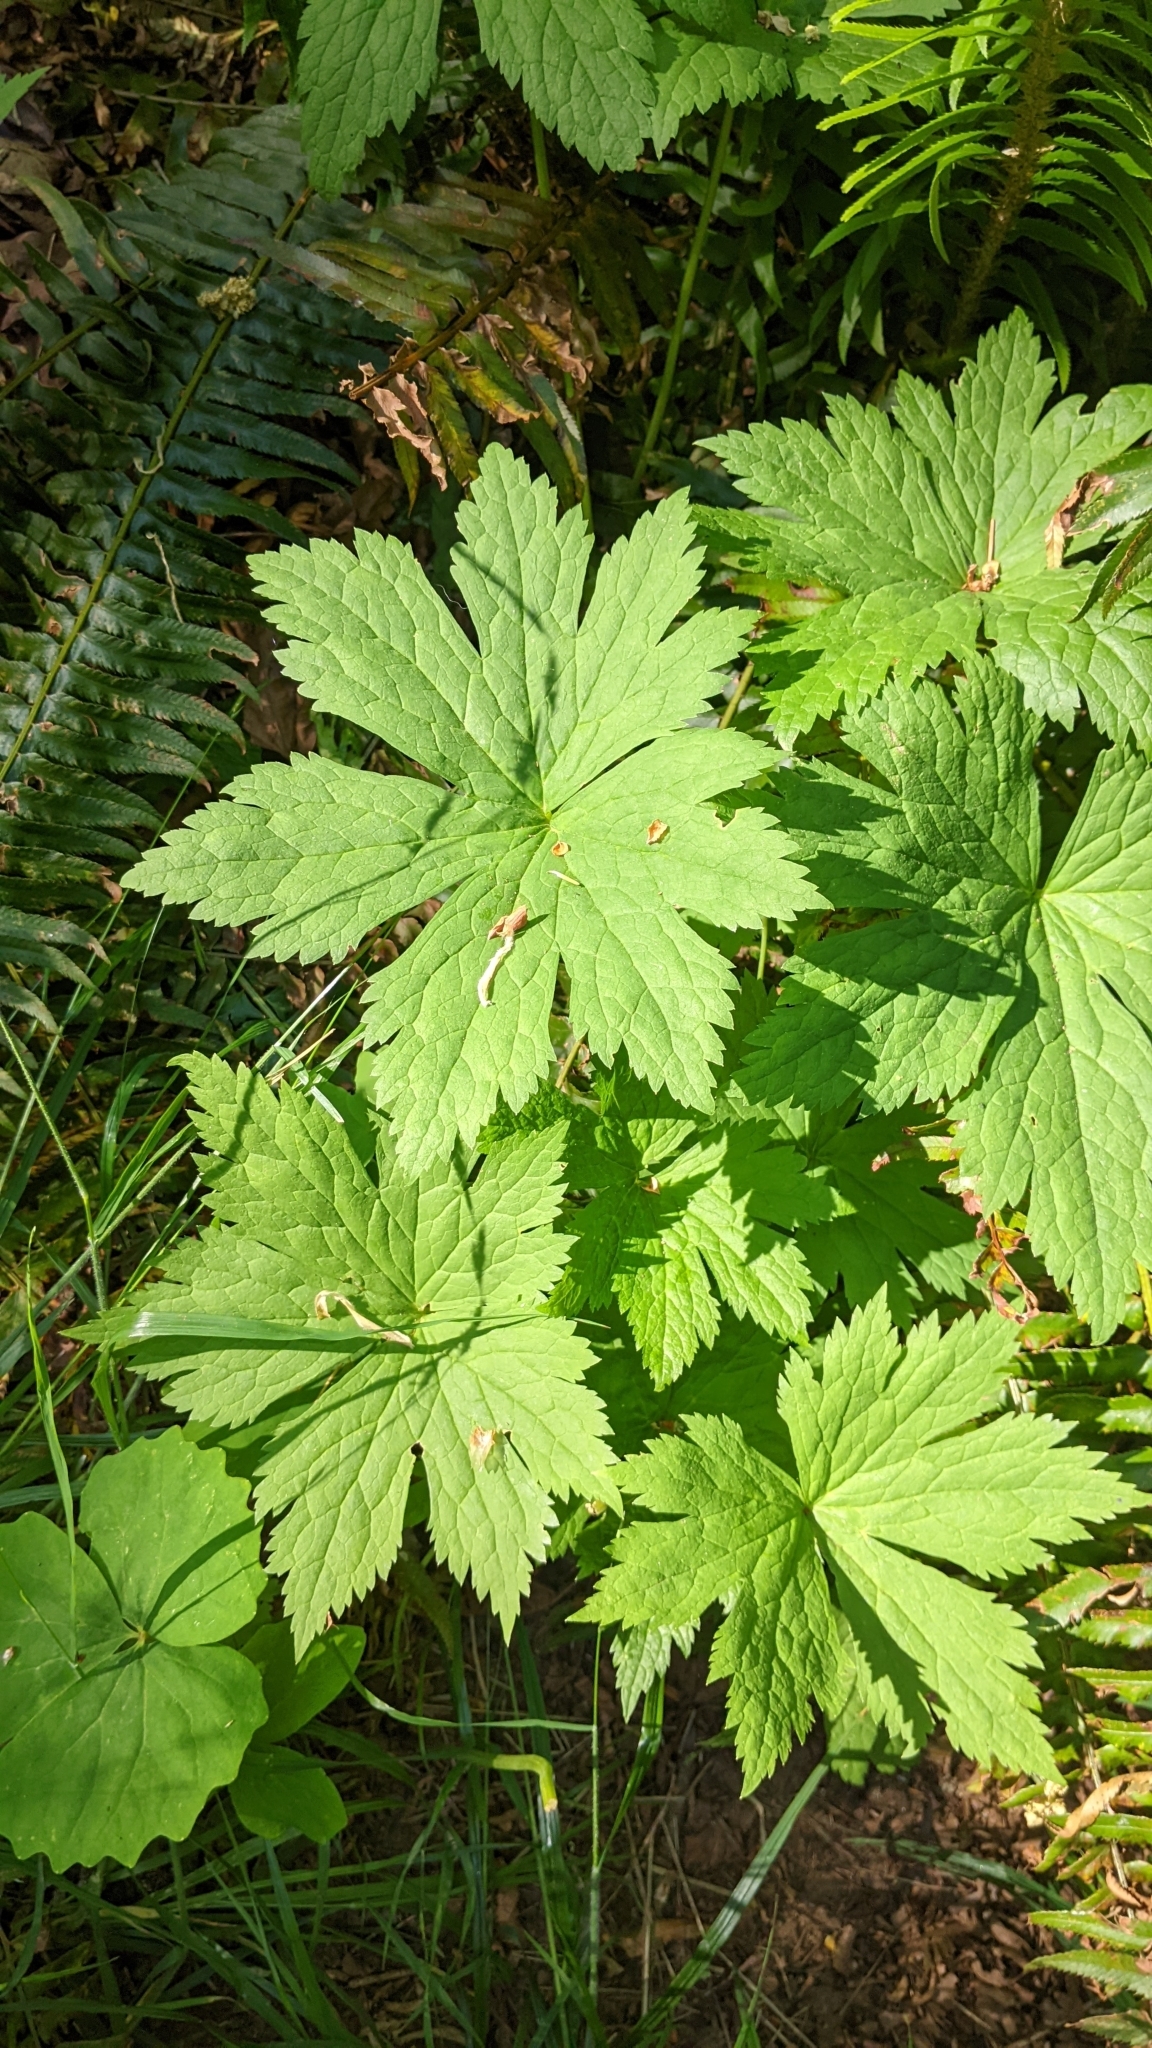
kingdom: Plantae
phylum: Tracheophyta
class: Magnoliopsida
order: Ranunculales
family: Ranunculaceae
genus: Trautvetteria
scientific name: Trautvetteria carolinensis
